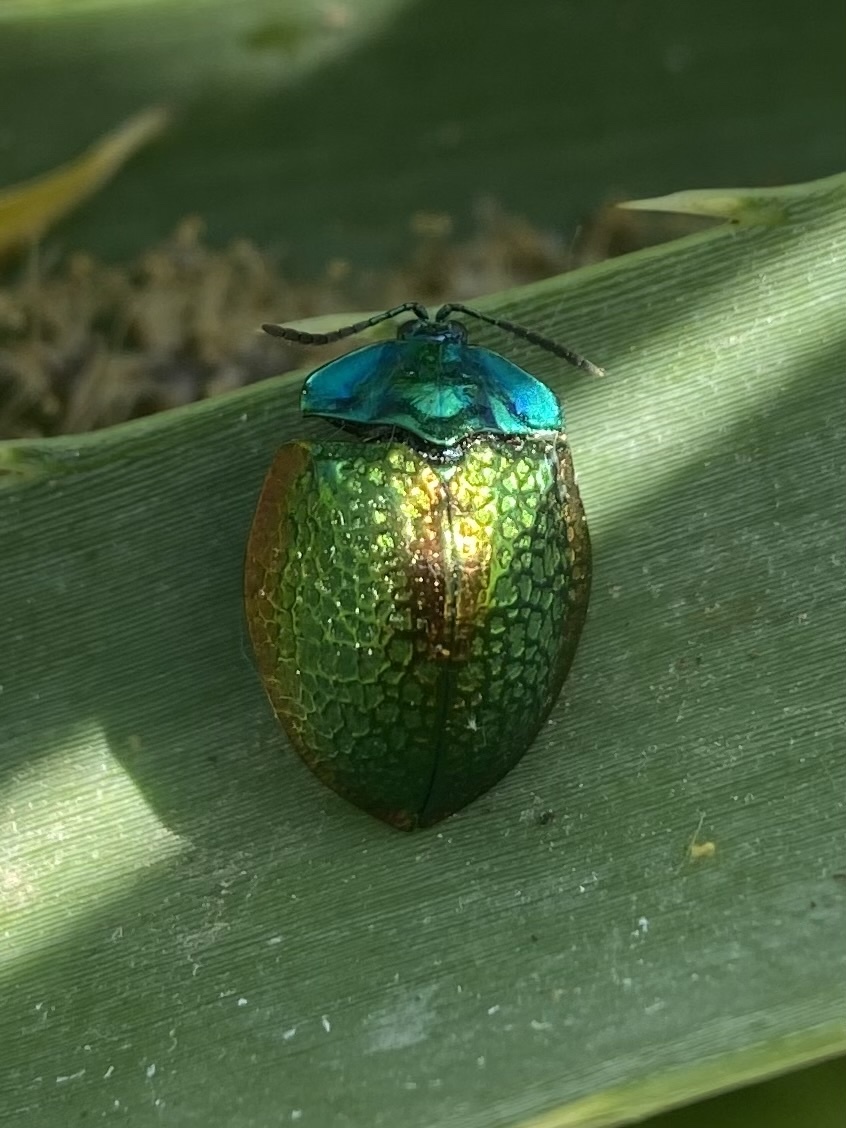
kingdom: Animalia
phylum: Arthropoda
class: Insecta
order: Coleoptera
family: Chrysomelidae
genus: Stolas
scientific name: Stolas festiva
